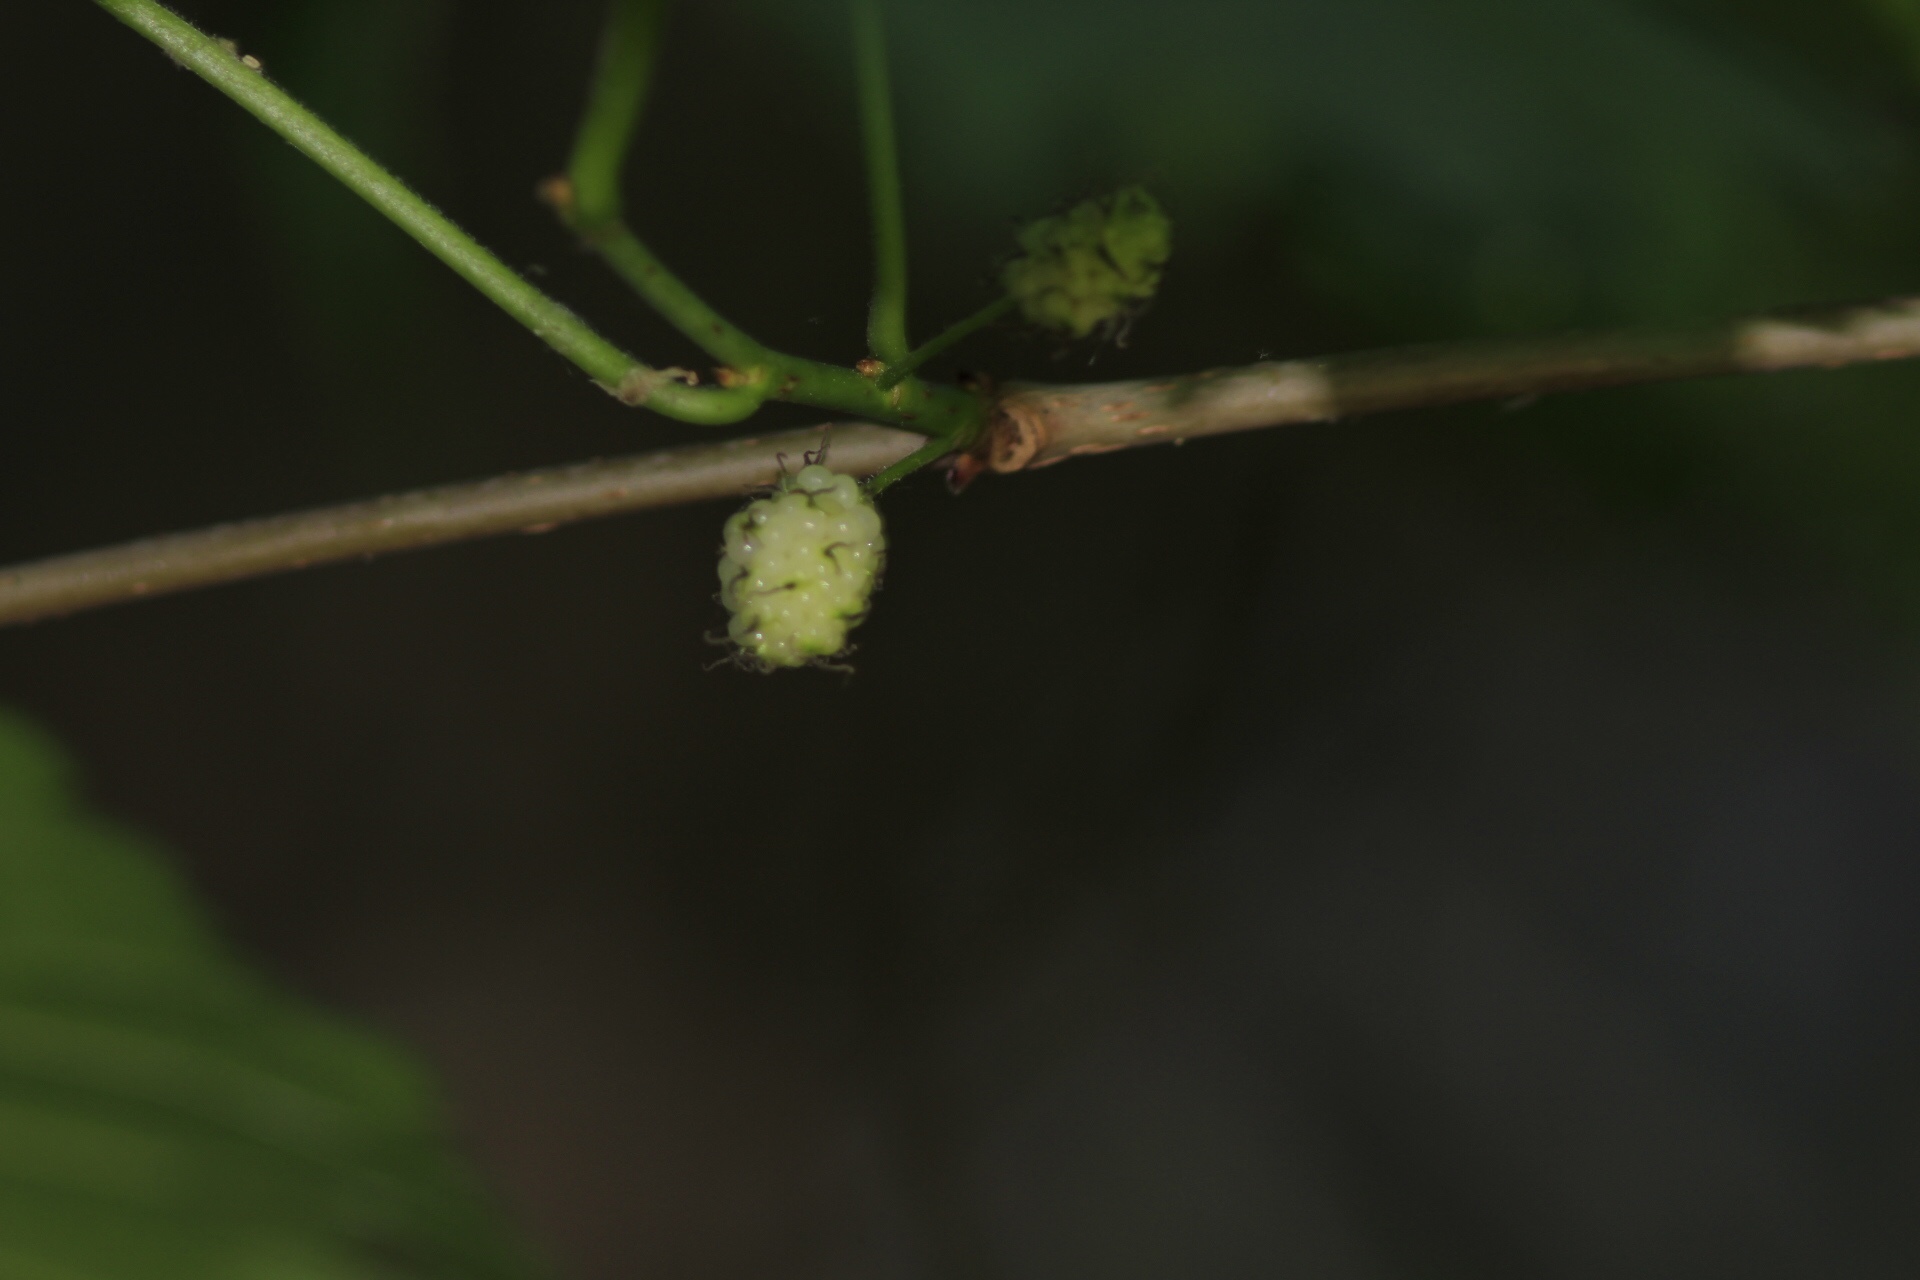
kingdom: Plantae
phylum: Tracheophyta
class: Magnoliopsida
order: Rosales
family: Moraceae
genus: Morus
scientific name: Morus alba
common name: White mulberry
